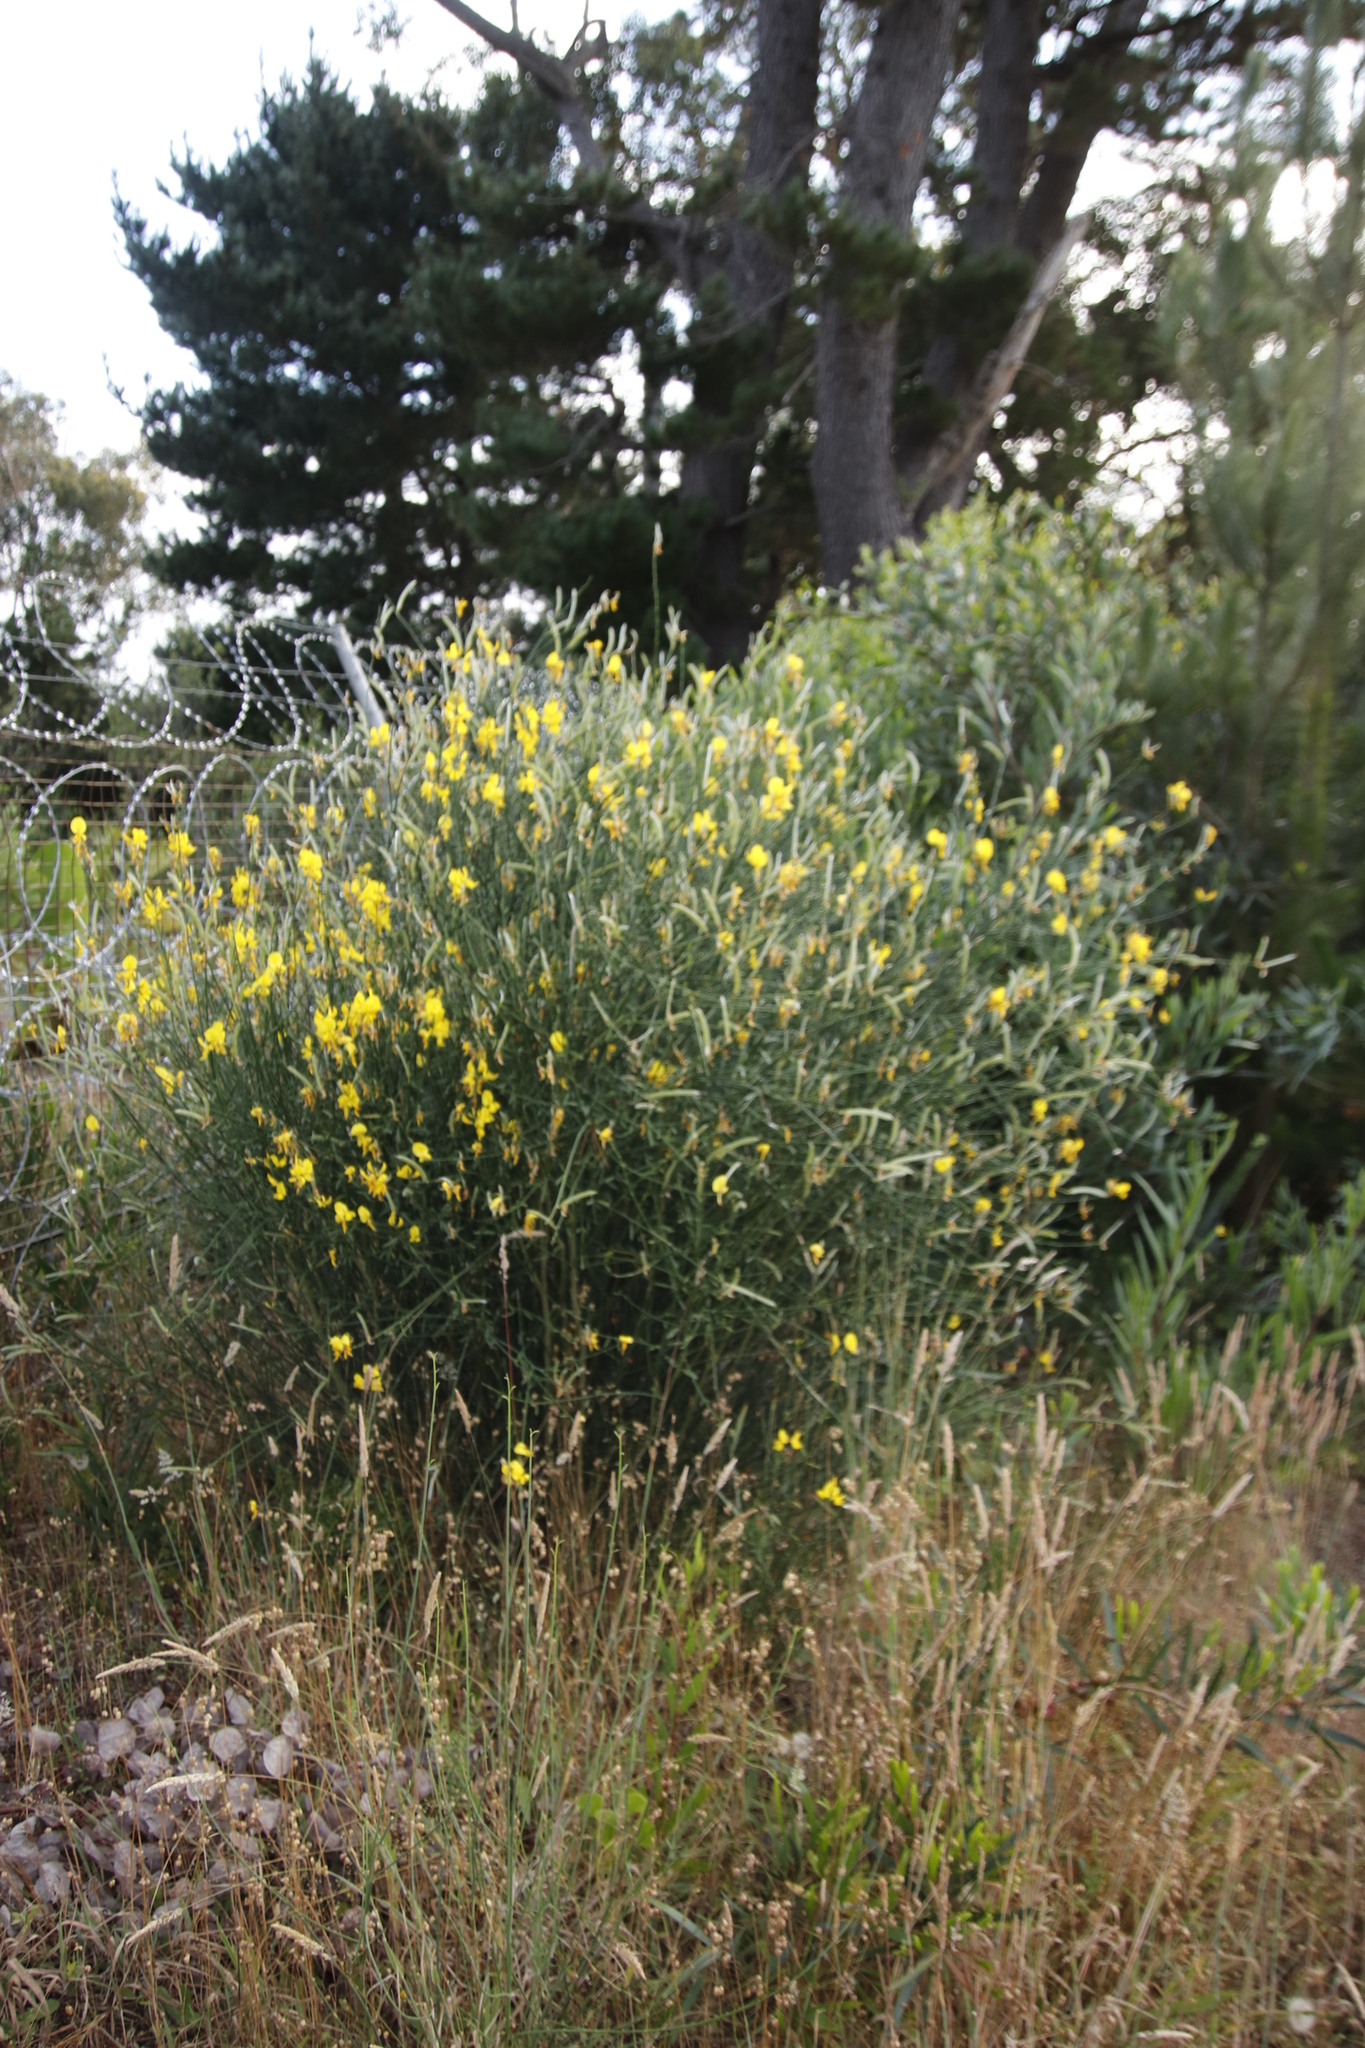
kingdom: Plantae
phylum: Tracheophyta
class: Magnoliopsida
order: Fabales
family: Fabaceae
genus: Spartium
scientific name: Spartium junceum
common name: Spanish broom
